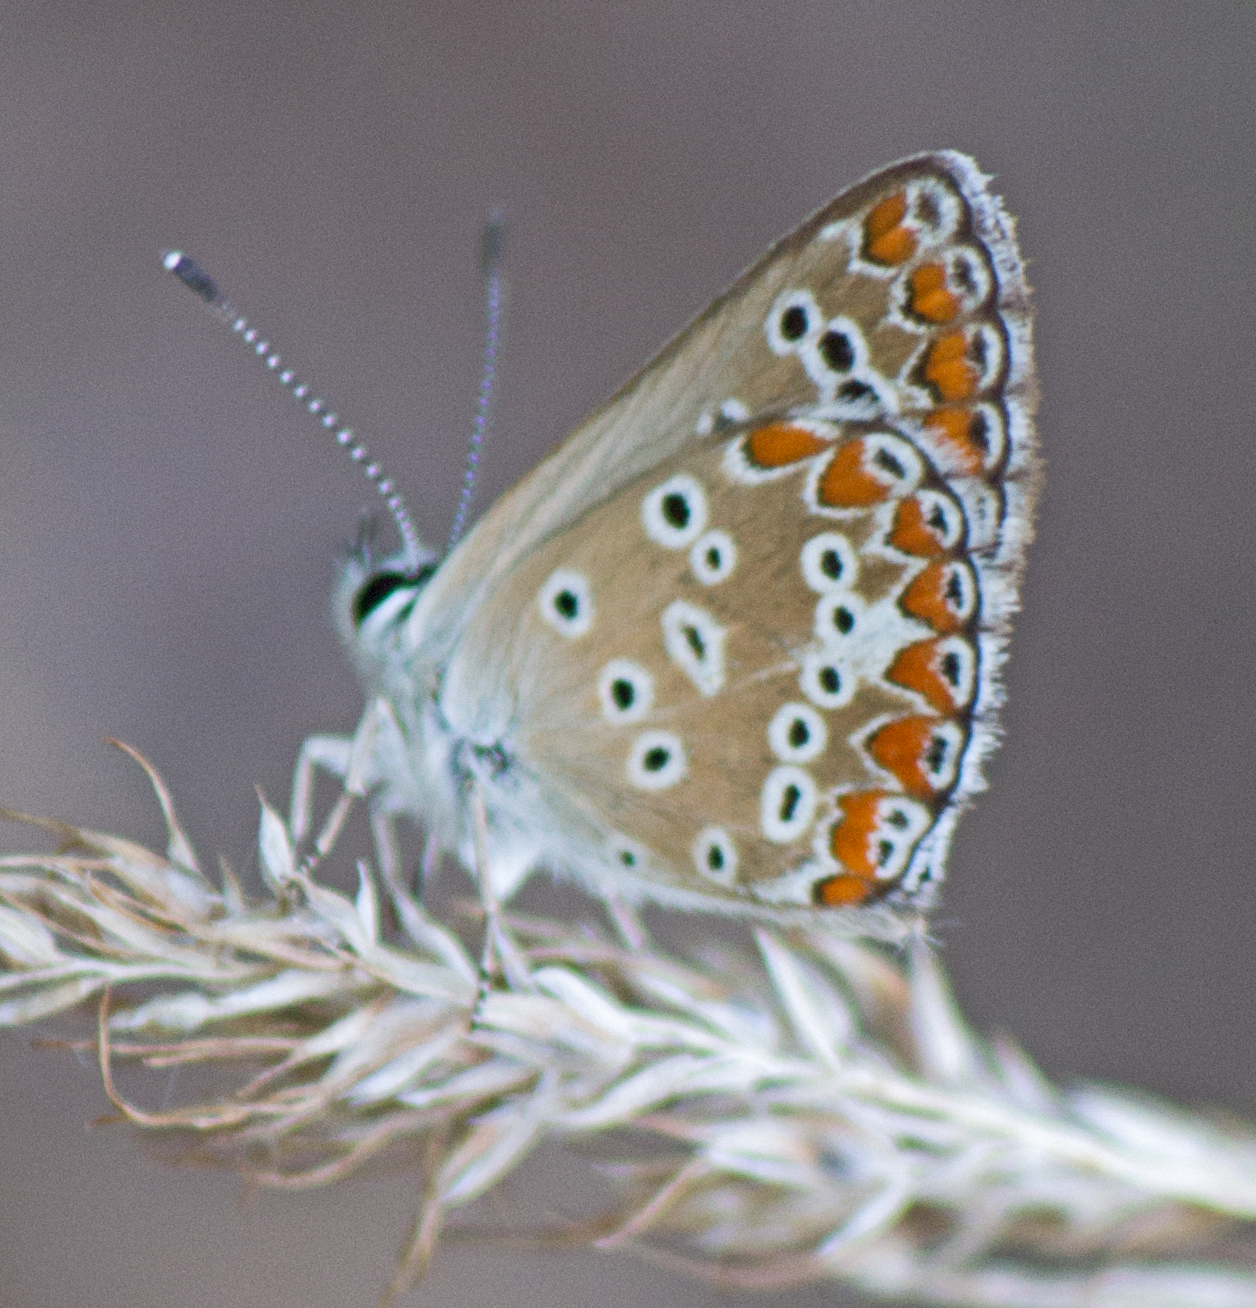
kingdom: Animalia
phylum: Arthropoda
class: Insecta
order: Lepidoptera
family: Lycaenidae
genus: Aricia
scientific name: Aricia agestis
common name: Brown argus
